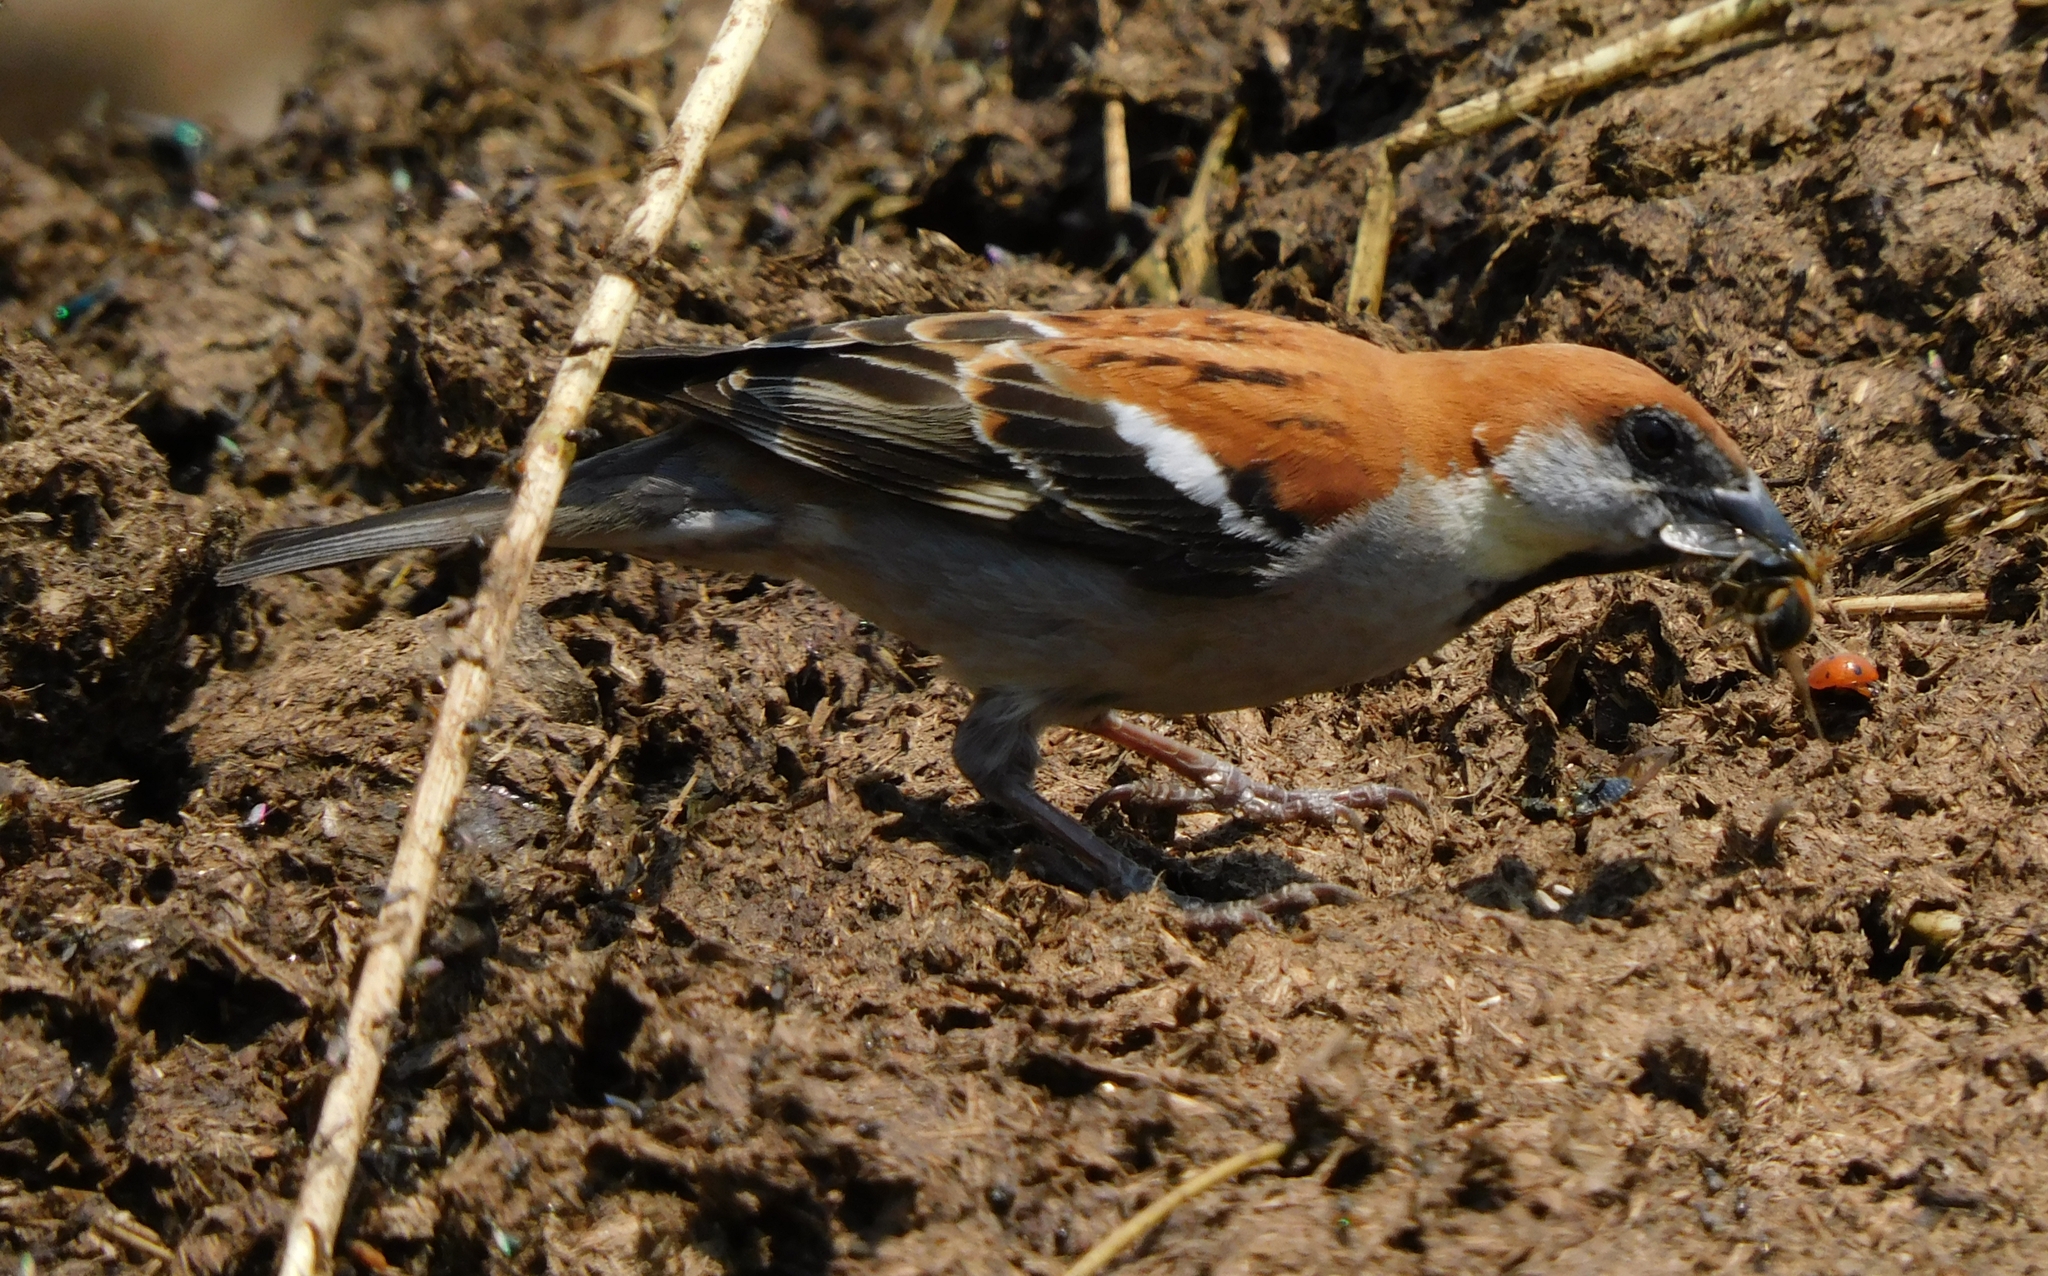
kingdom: Animalia
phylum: Chordata
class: Aves
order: Passeriformes
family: Passeridae
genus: Passer
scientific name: Passer cinnamomeus
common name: Russet sparrow
